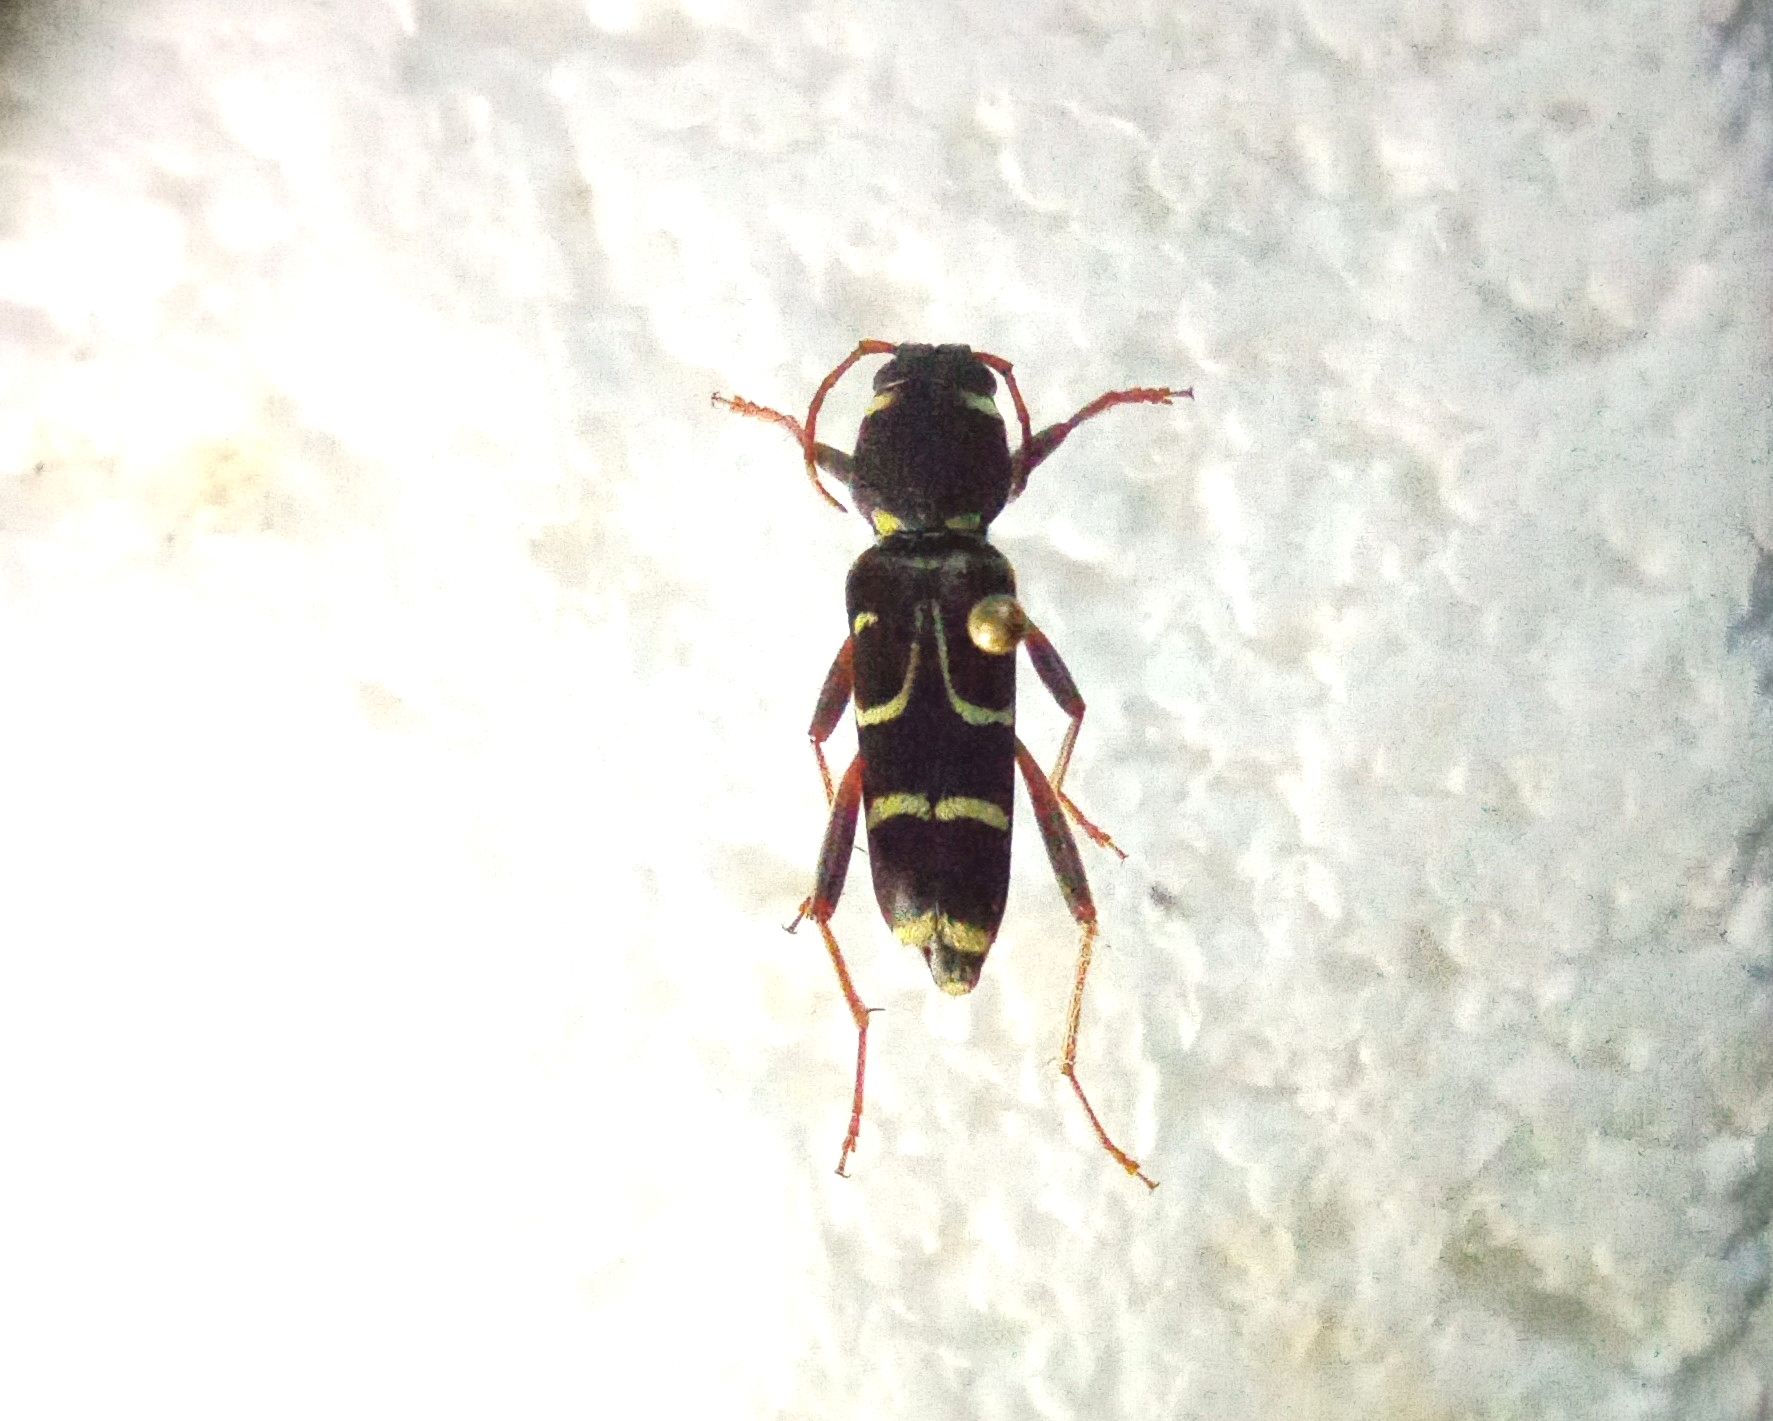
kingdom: Animalia
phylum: Arthropoda
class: Insecta
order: Coleoptera
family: Cerambycidae
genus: Xylotrechus
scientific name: Xylotrechus arvicola
